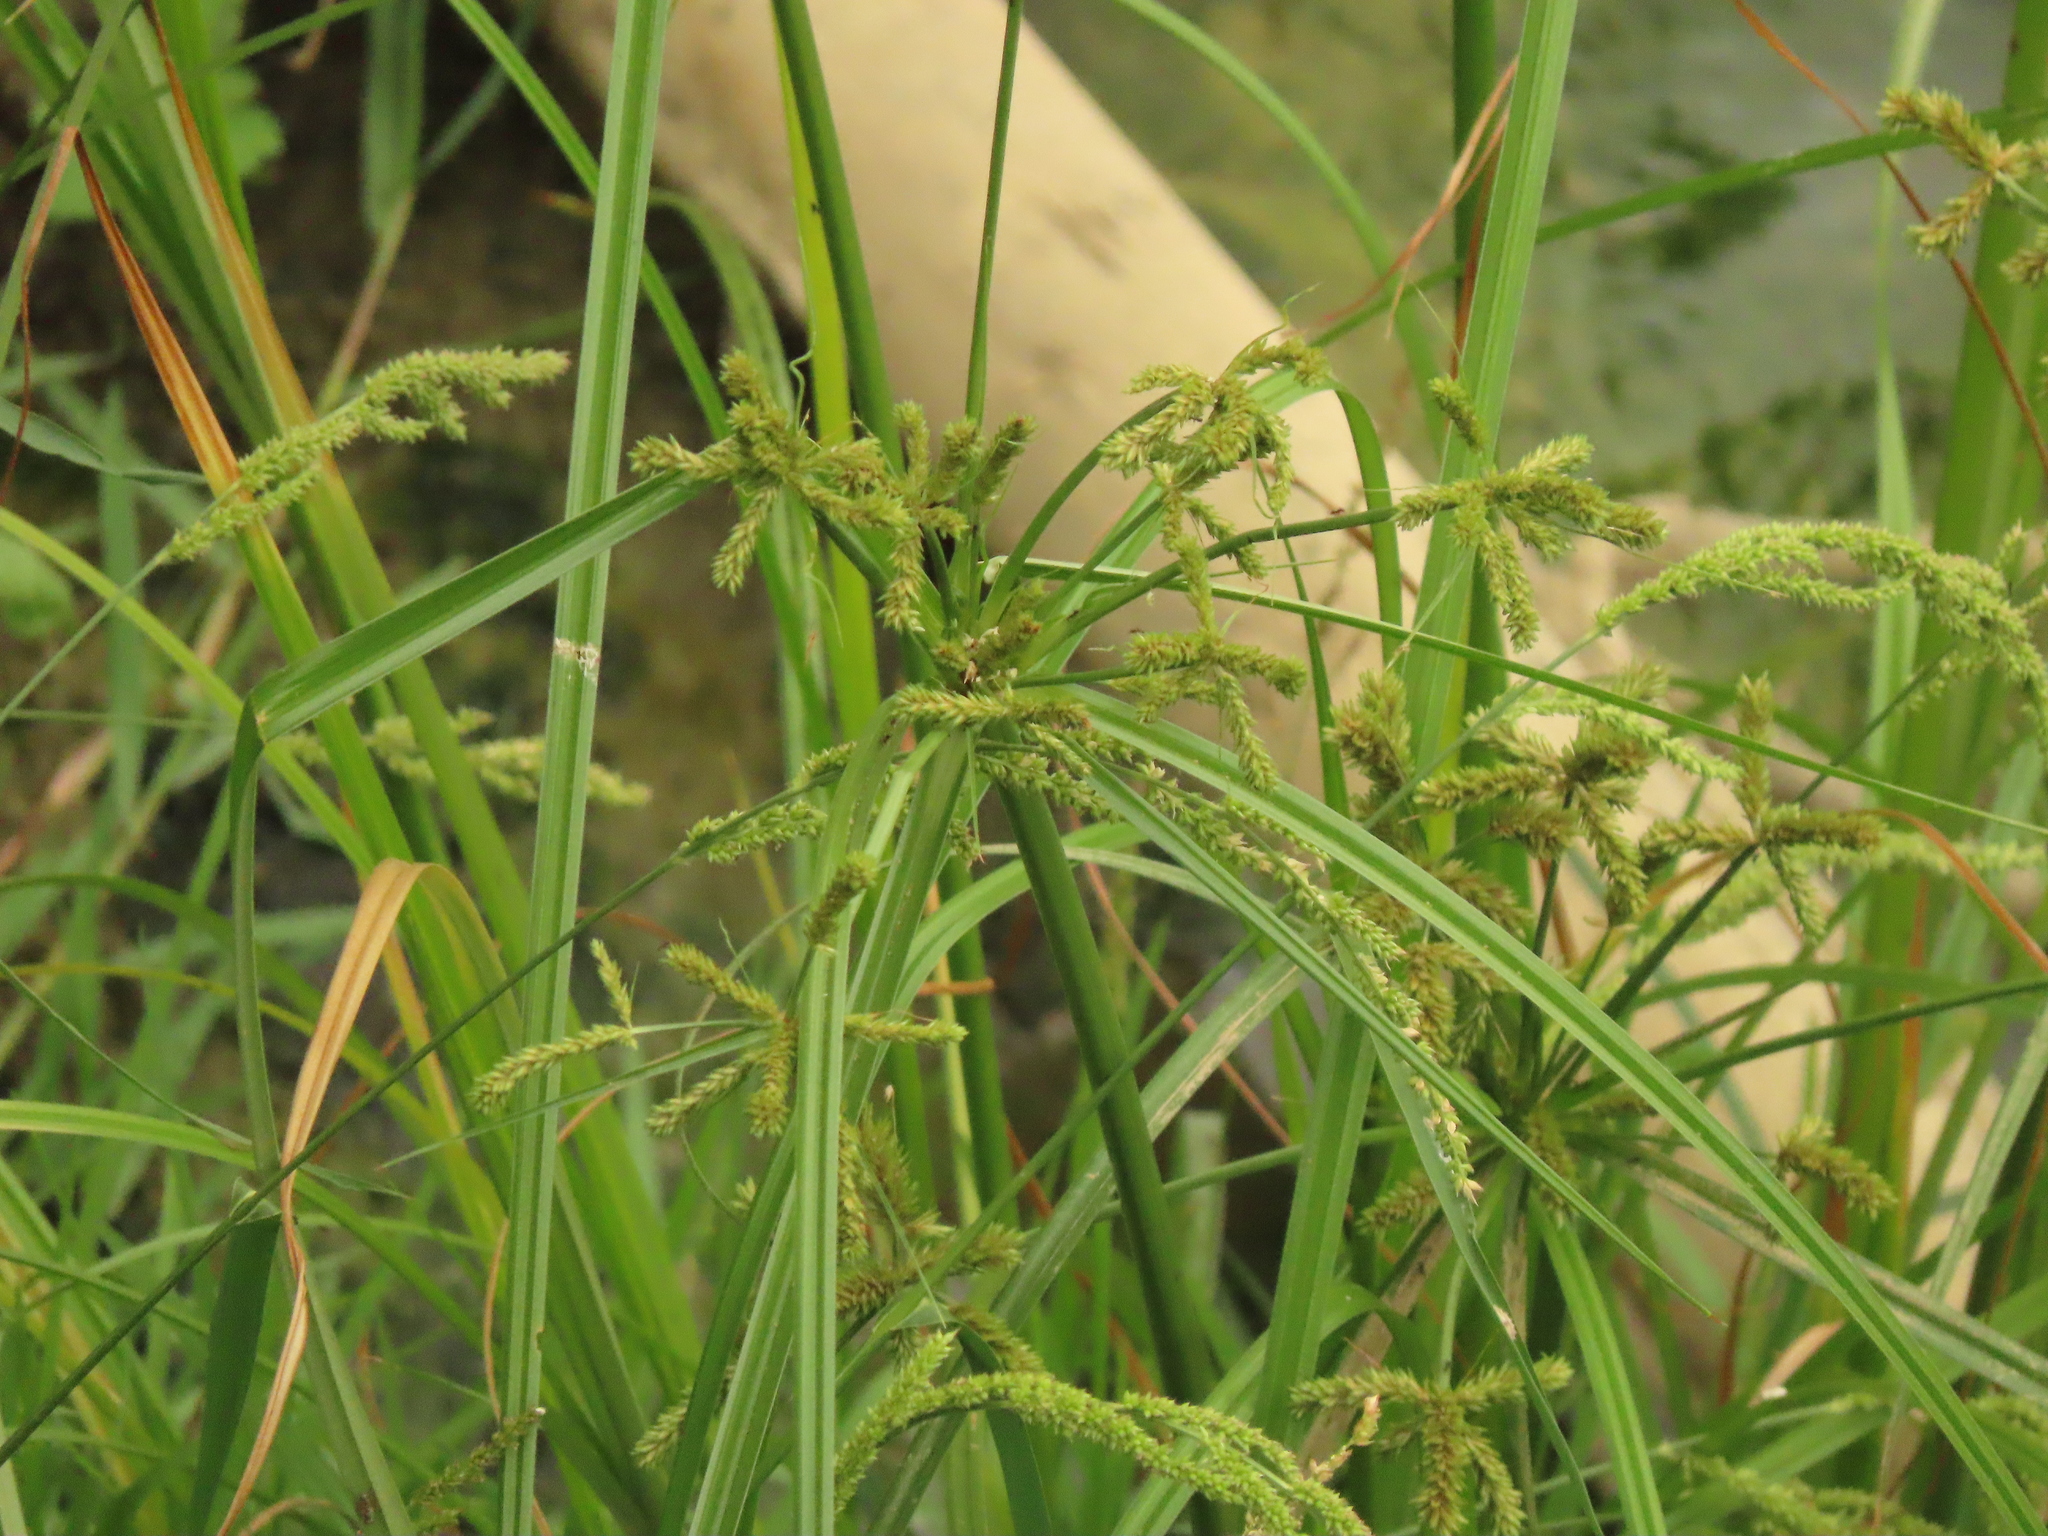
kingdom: Plantae
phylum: Tracheophyta
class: Liliopsida
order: Poales
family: Cyperaceae
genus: Cyperus
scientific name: Cyperus imbricatus
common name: Shingle flatsedge
